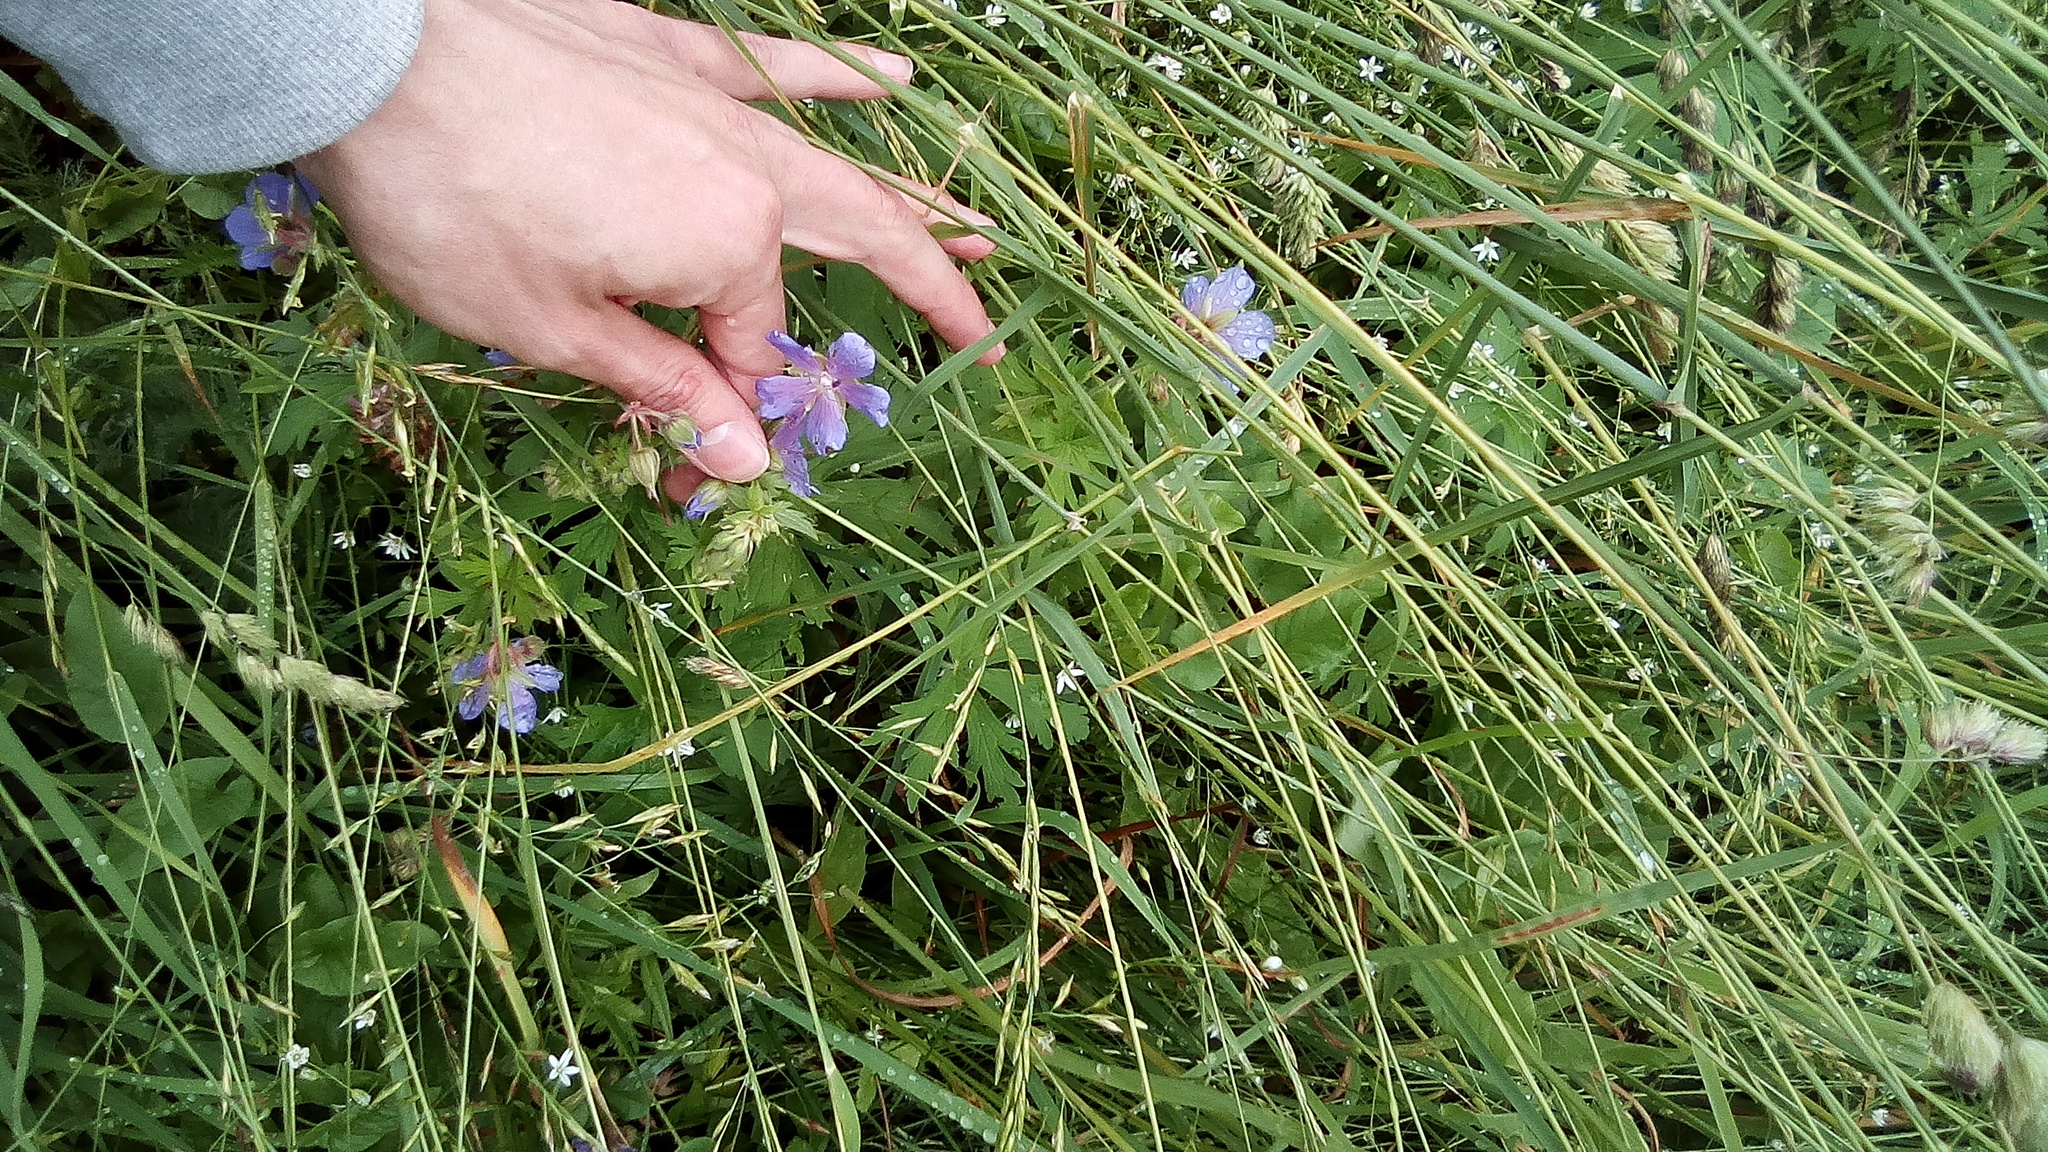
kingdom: Plantae
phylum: Tracheophyta
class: Magnoliopsida
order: Geraniales
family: Geraniaceae
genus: Geranium
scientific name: Geranium pratense
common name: Meadow crane's-bill
